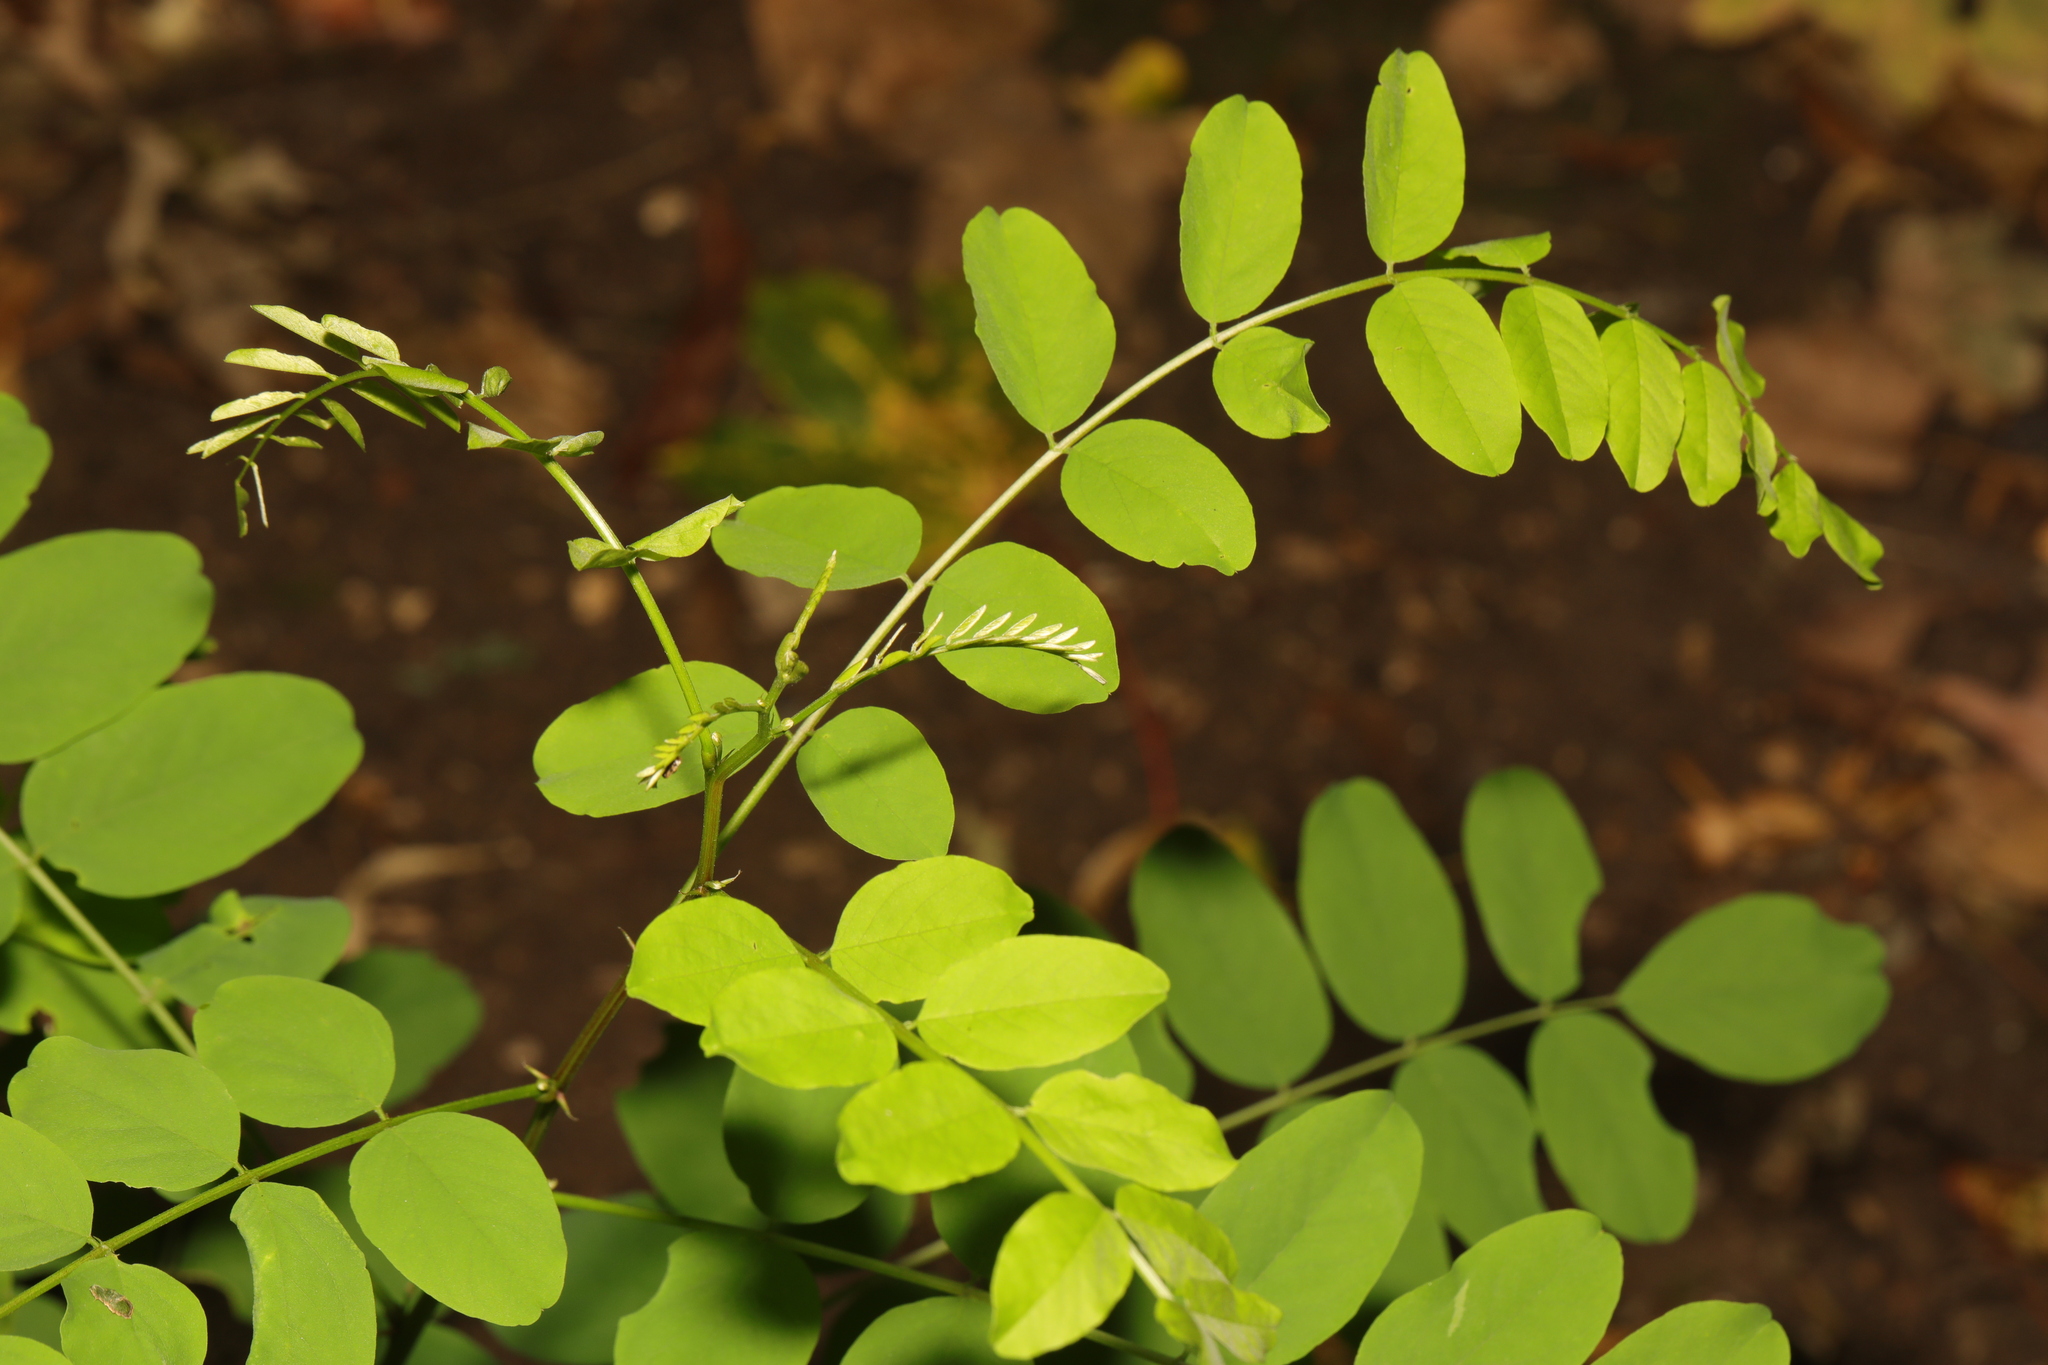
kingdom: Plantae
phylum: Tracheophyta
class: Magnoliopsida
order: Fabales
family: Fabaceae
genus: Robinia
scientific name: Robinia pseudoacacia
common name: Black locust
